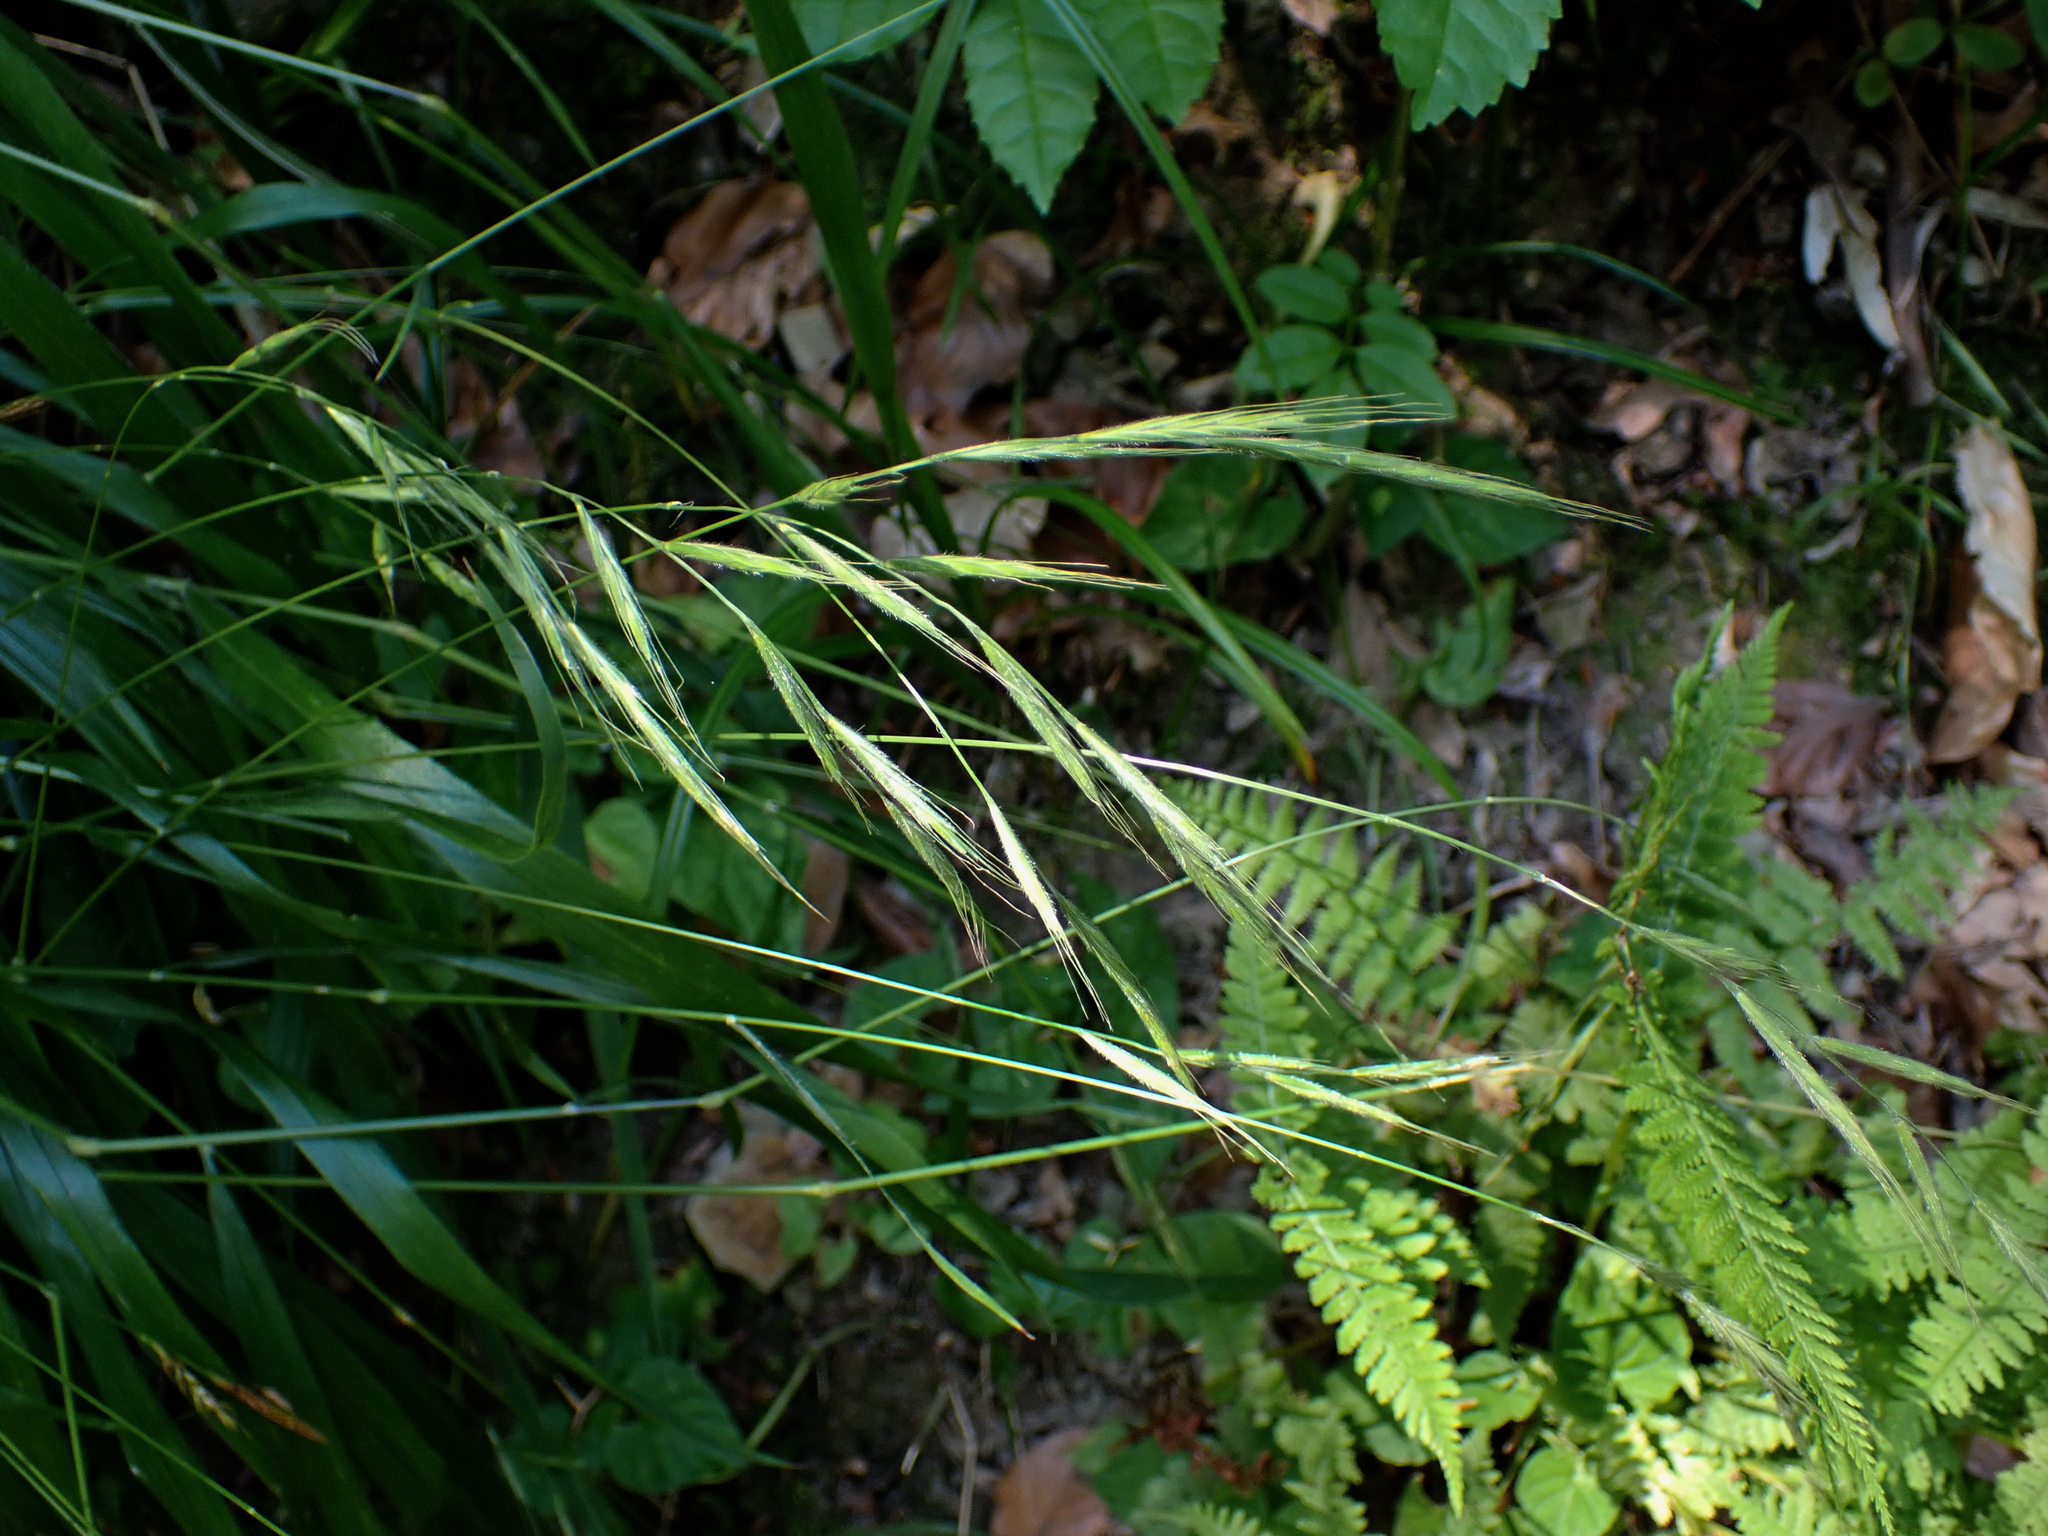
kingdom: Plantae
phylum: Tracheophyta
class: Liliopsida
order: Poales
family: Poaceae
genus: Brachypodium
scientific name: Brachypodium sylvaticum
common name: False-brome
